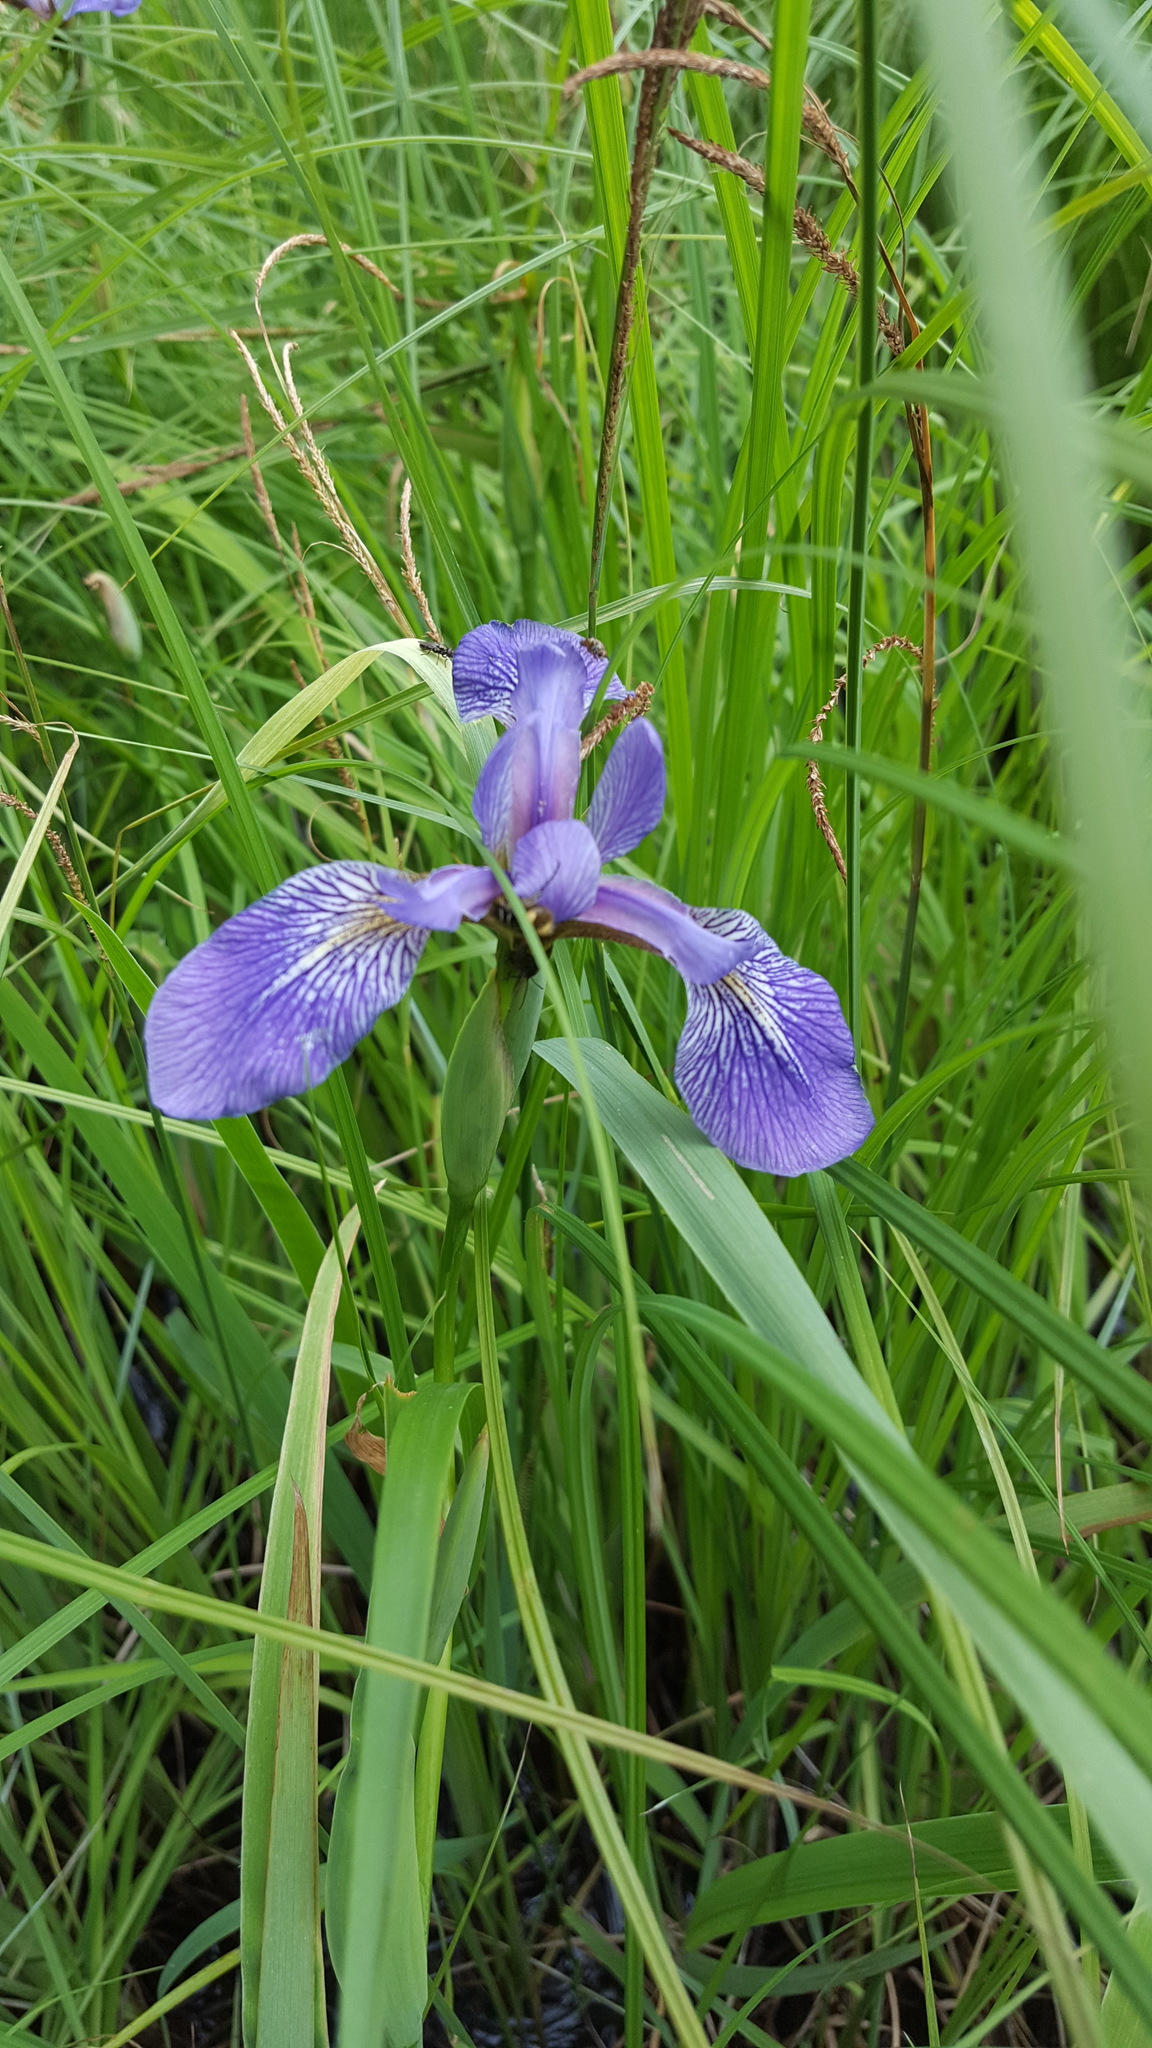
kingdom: Plantae
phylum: Tracheophyta
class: Liliopsida
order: Asparagales
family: Iridaceae
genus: Iris
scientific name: Iris versicolor
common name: Purple iris
